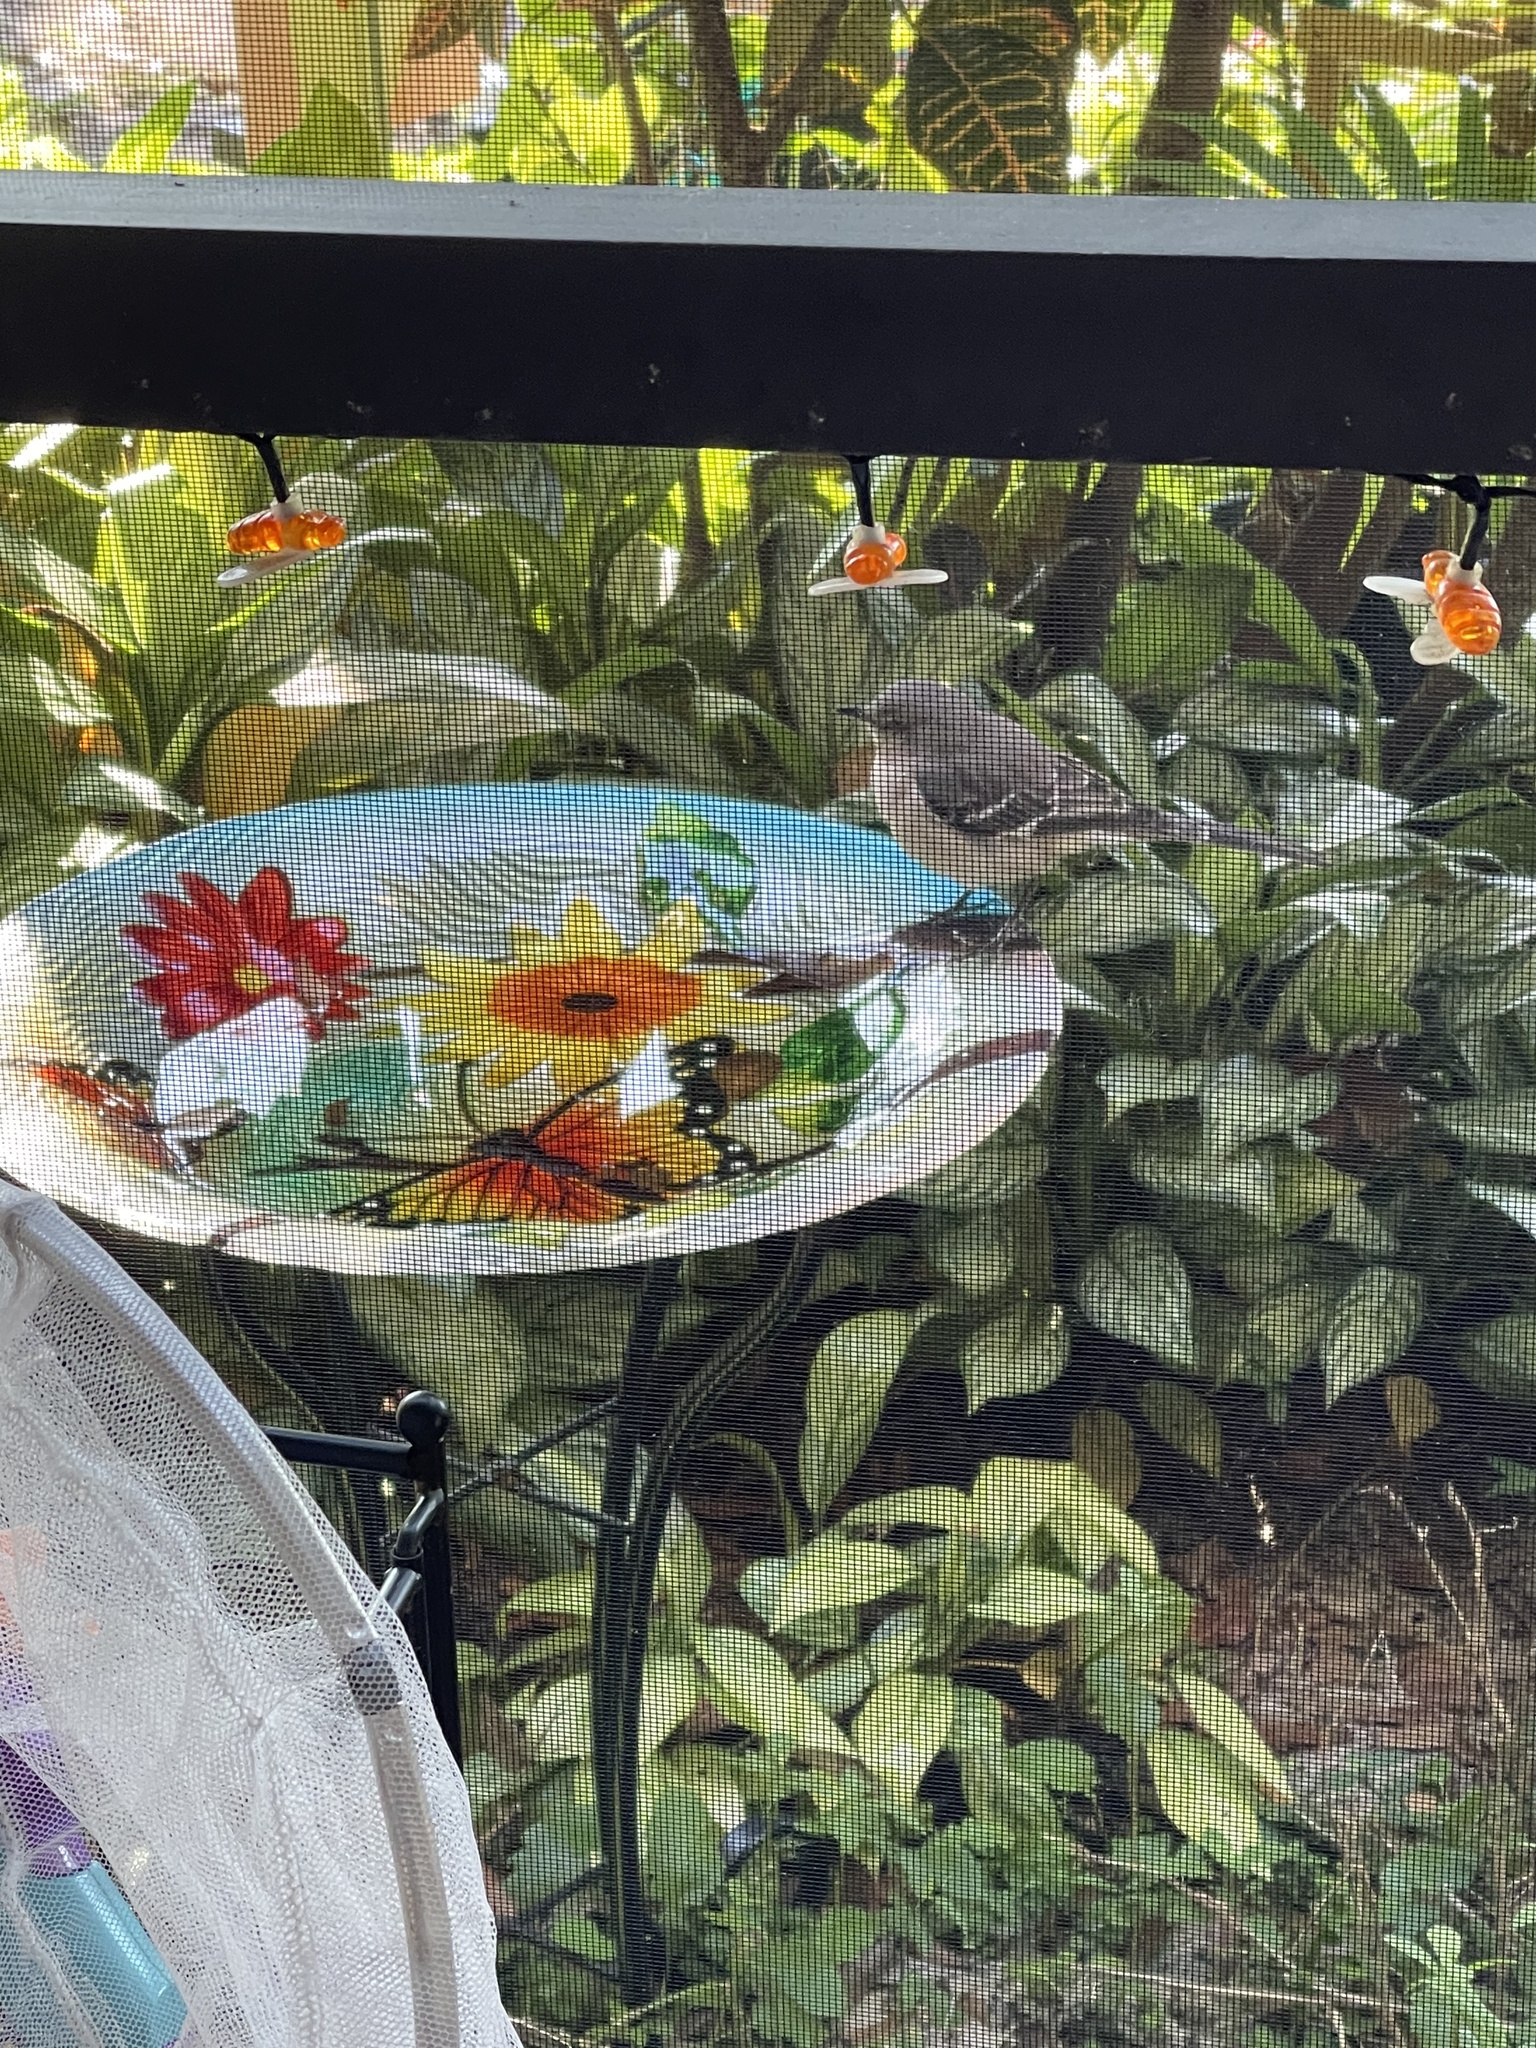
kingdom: Animalia
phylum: Chordata
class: Aves
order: Passeriformes
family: Mimidae
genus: Mimus
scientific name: Mimus polyglottos
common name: Northern mockingbird
